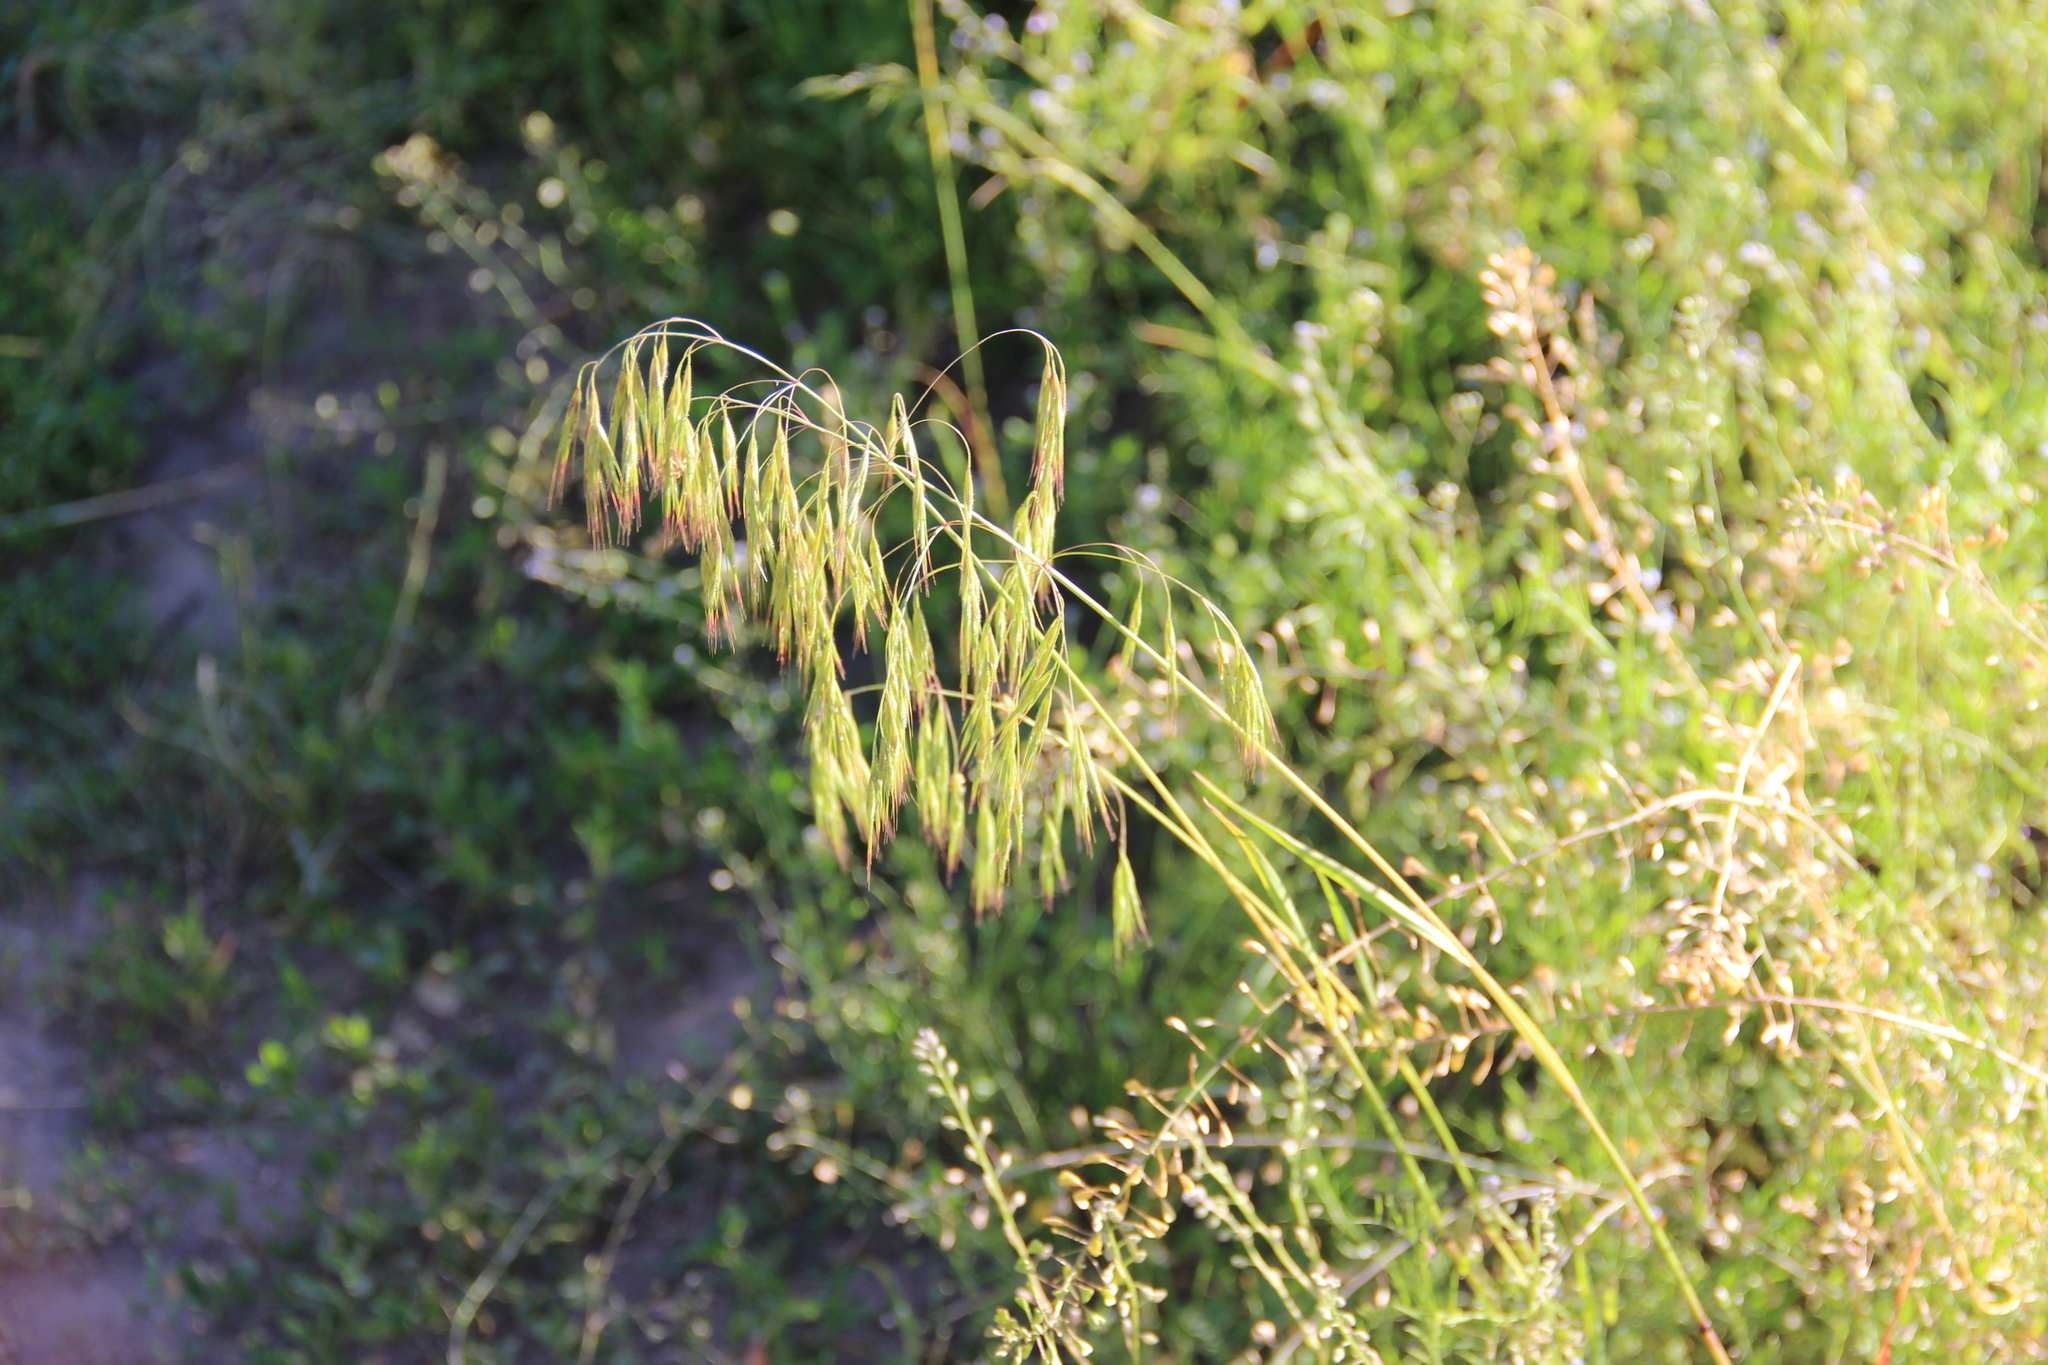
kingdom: Plantae
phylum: Tracheophyta
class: Liliopsida
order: Poales
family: Poaceae
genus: Bromus
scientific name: Bromus tectorum
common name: Cheatgrass
